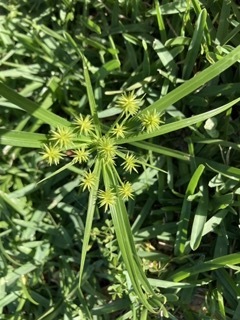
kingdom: Plantae
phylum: Tracheophyta
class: Liliopsida
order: Poales
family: Cyperaceae
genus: Cyperus
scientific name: Cyperus croceus
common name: Baldwin's flatsedge
